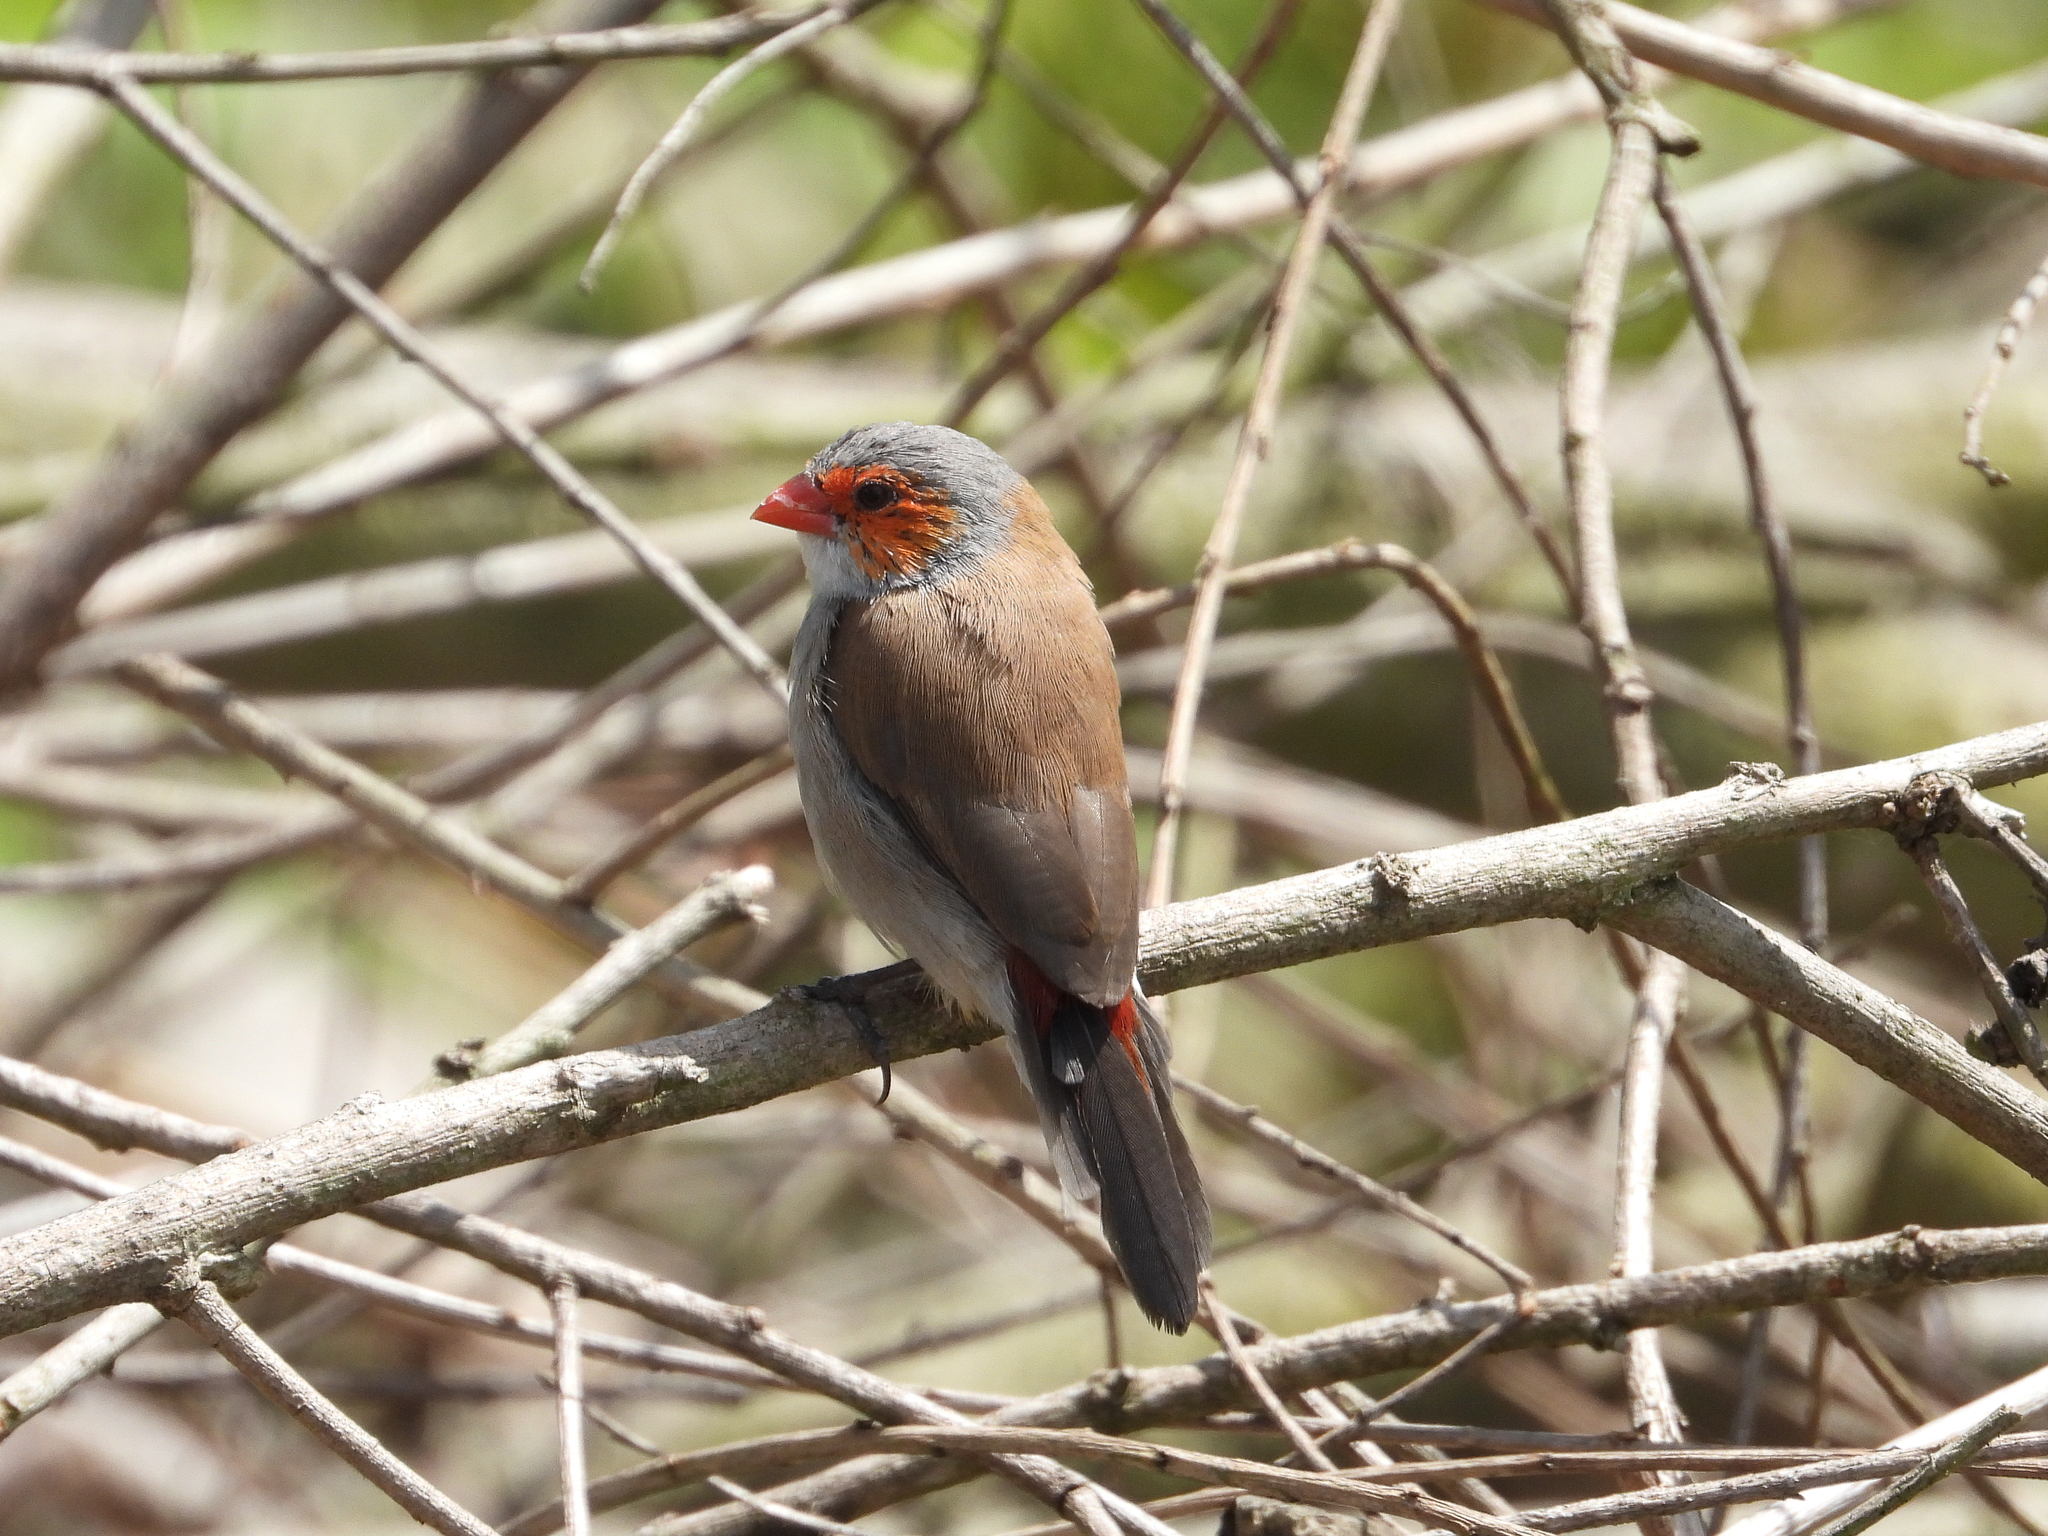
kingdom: Animalia
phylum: Chordata
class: Aves
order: Passeriformes
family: Estrildidae
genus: Estrilda
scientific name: Estrilda melpoda
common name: Orange-cheeked waxbill
